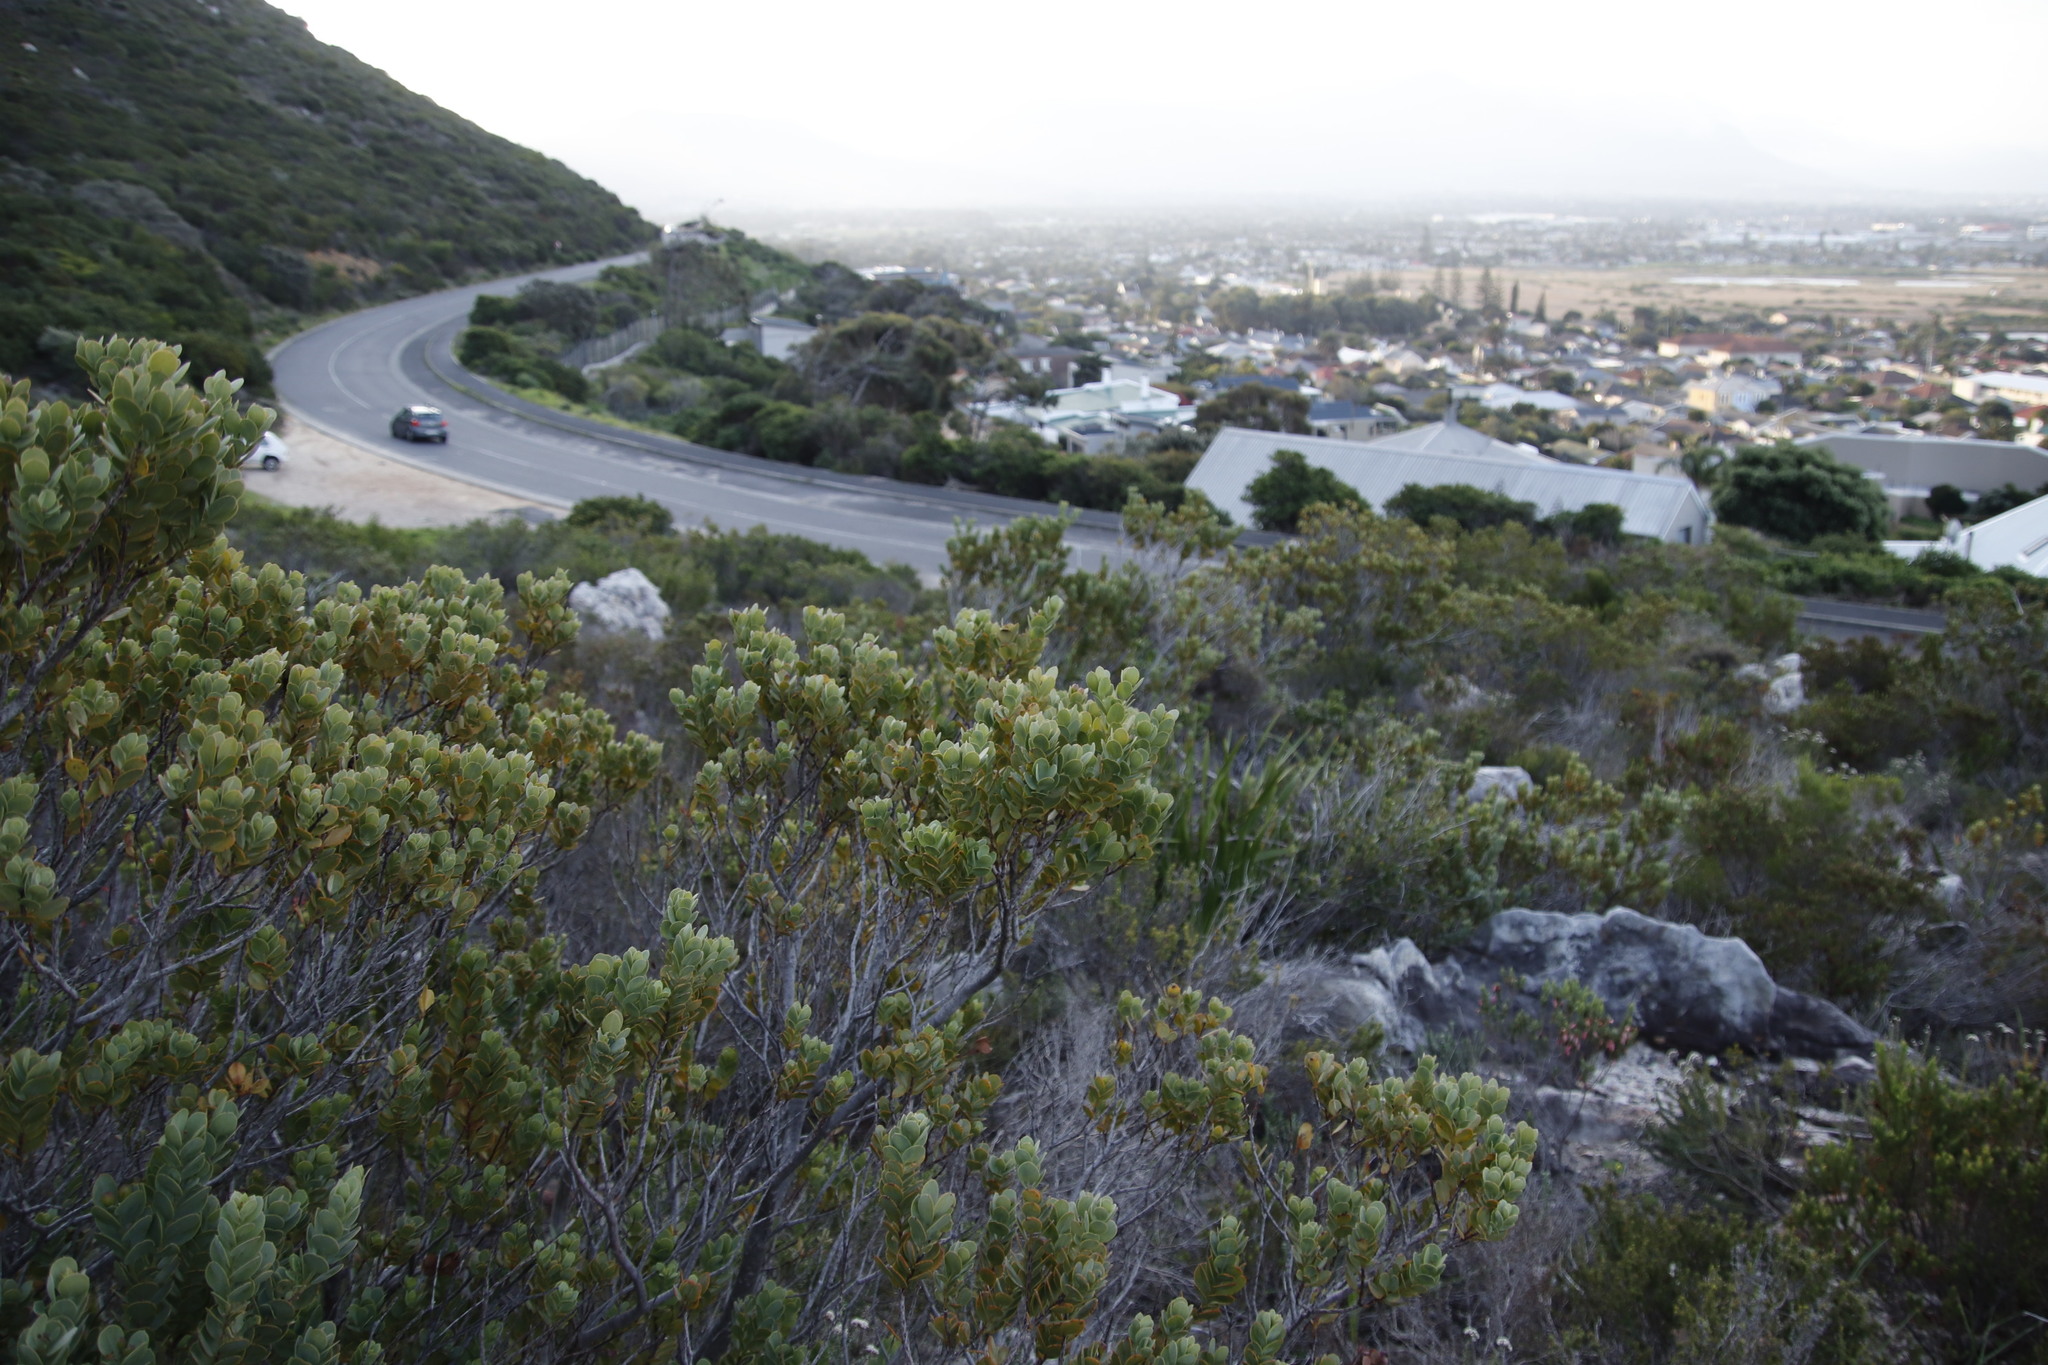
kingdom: Plantae
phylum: Tracheophyta
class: Magnoliopsida
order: Santalales
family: Santalaceae
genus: Osyris
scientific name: Osyris compressa
